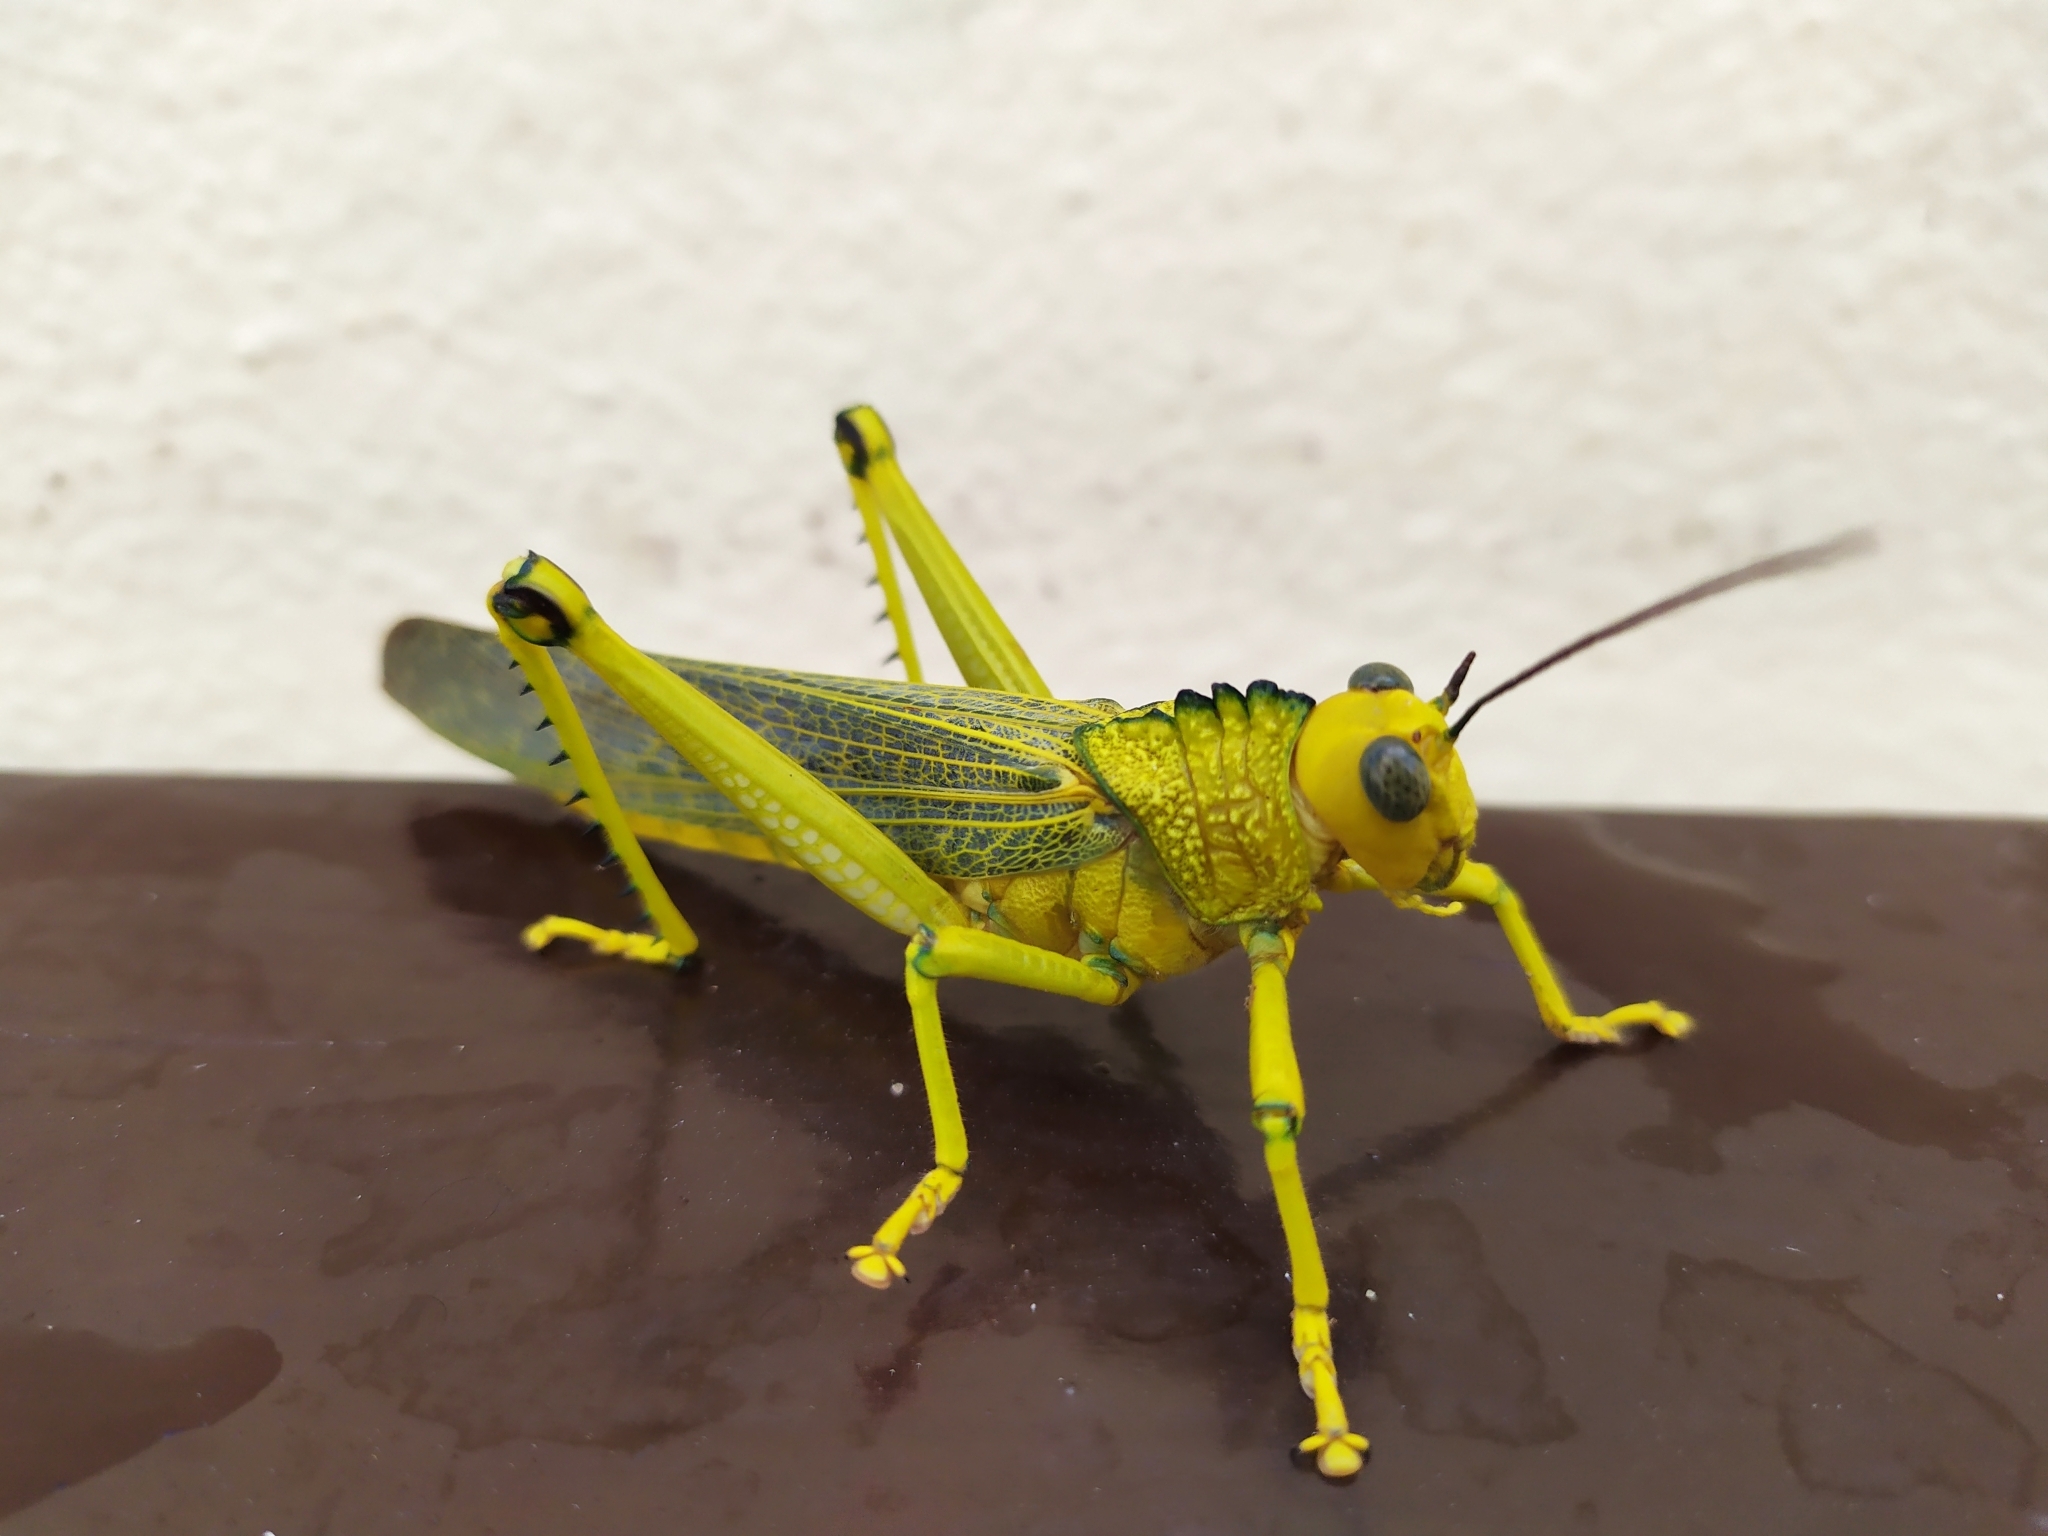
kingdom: Animalia
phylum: Arthropoda
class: Insecta
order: Orthoptera
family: Romaleidae
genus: Tropidacris
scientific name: Tropidacris cristata
